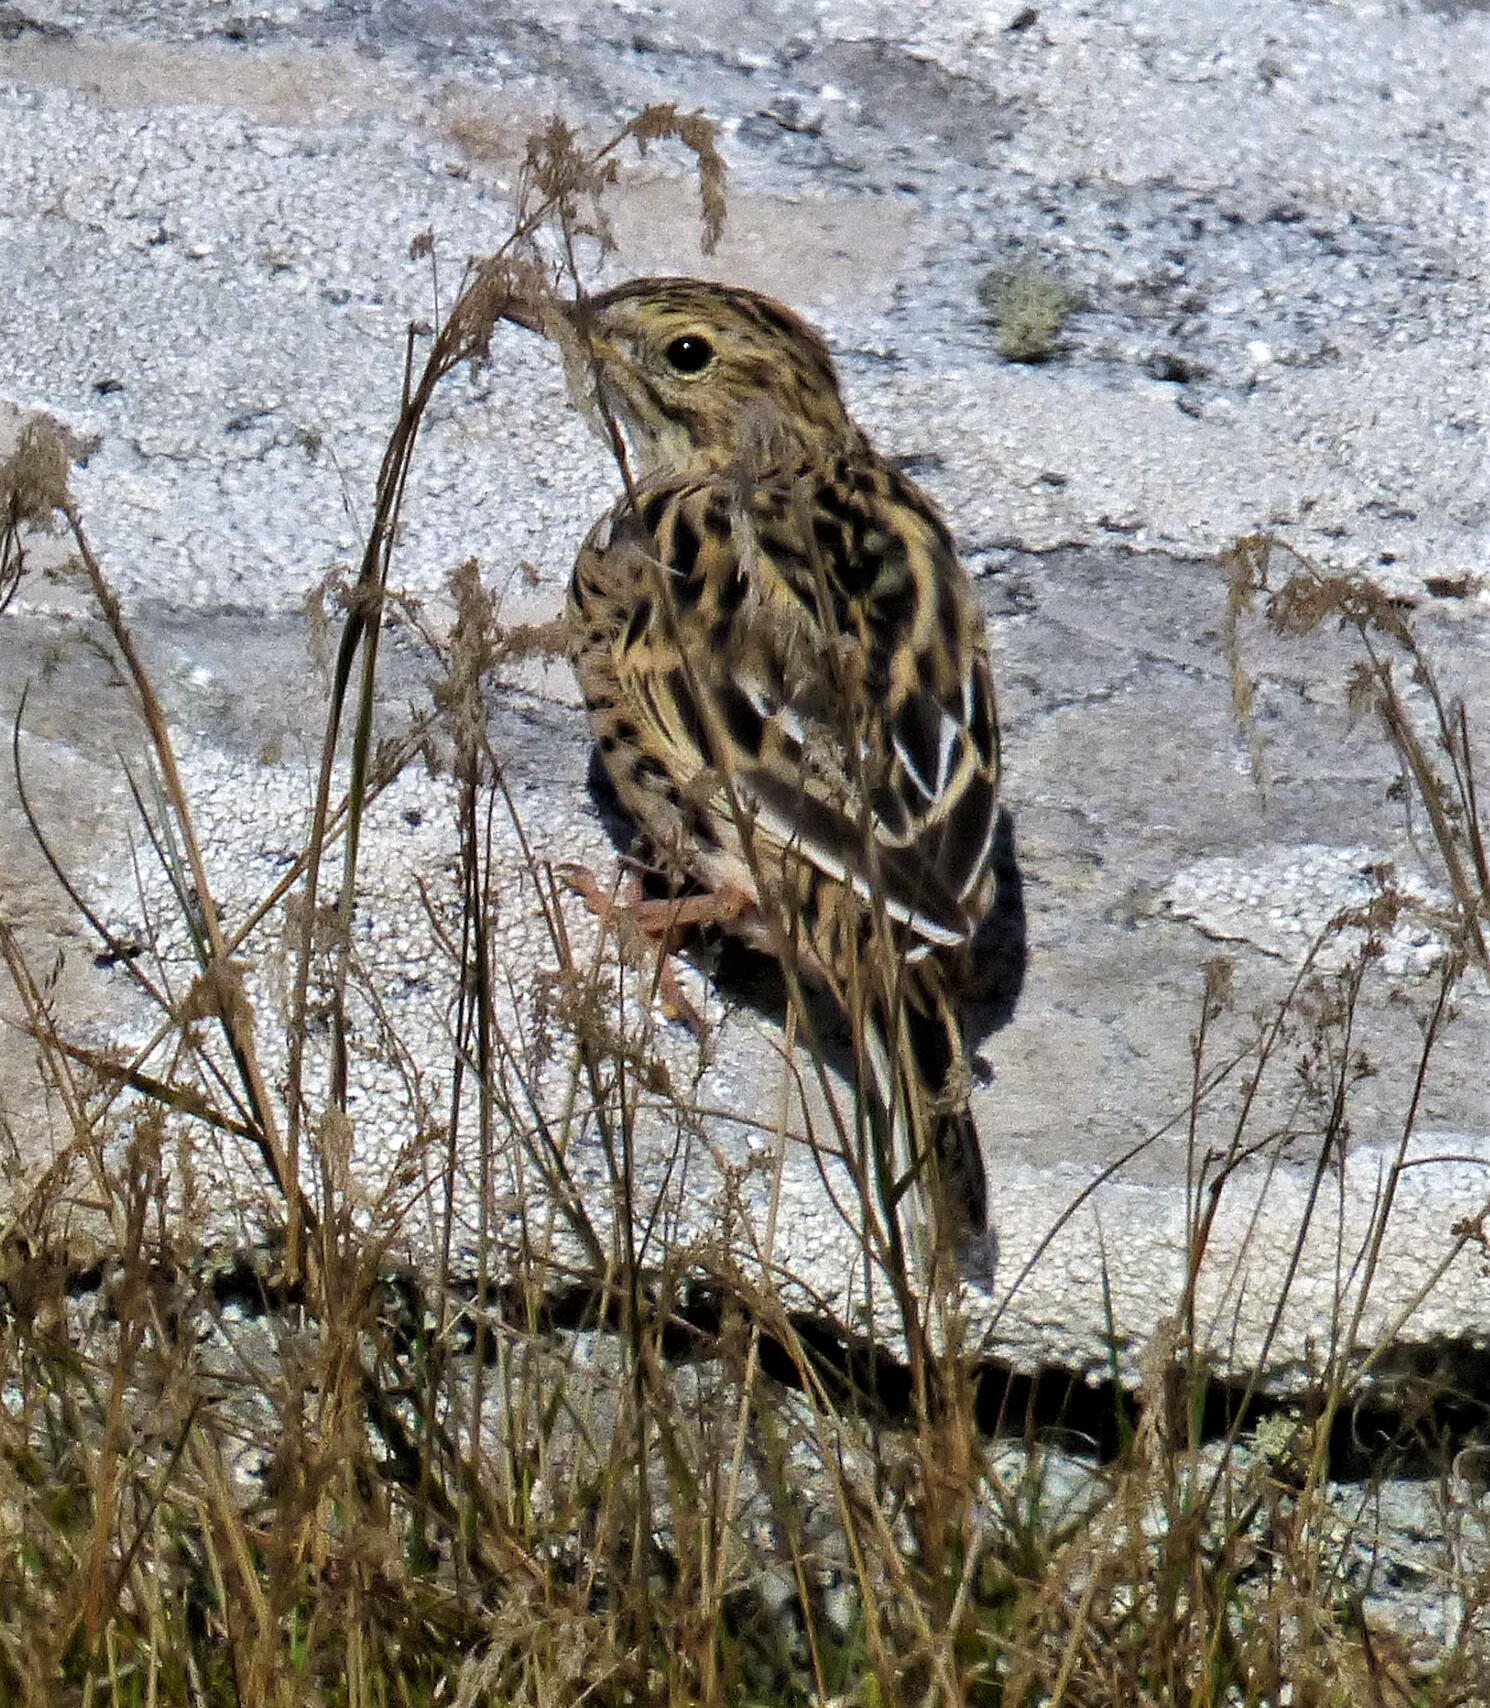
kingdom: Animalia
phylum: Chordata
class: Aves
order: Passeriformes
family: Motacillidae
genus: Anthus
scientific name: Anthus correndera
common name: Correndera pipit
